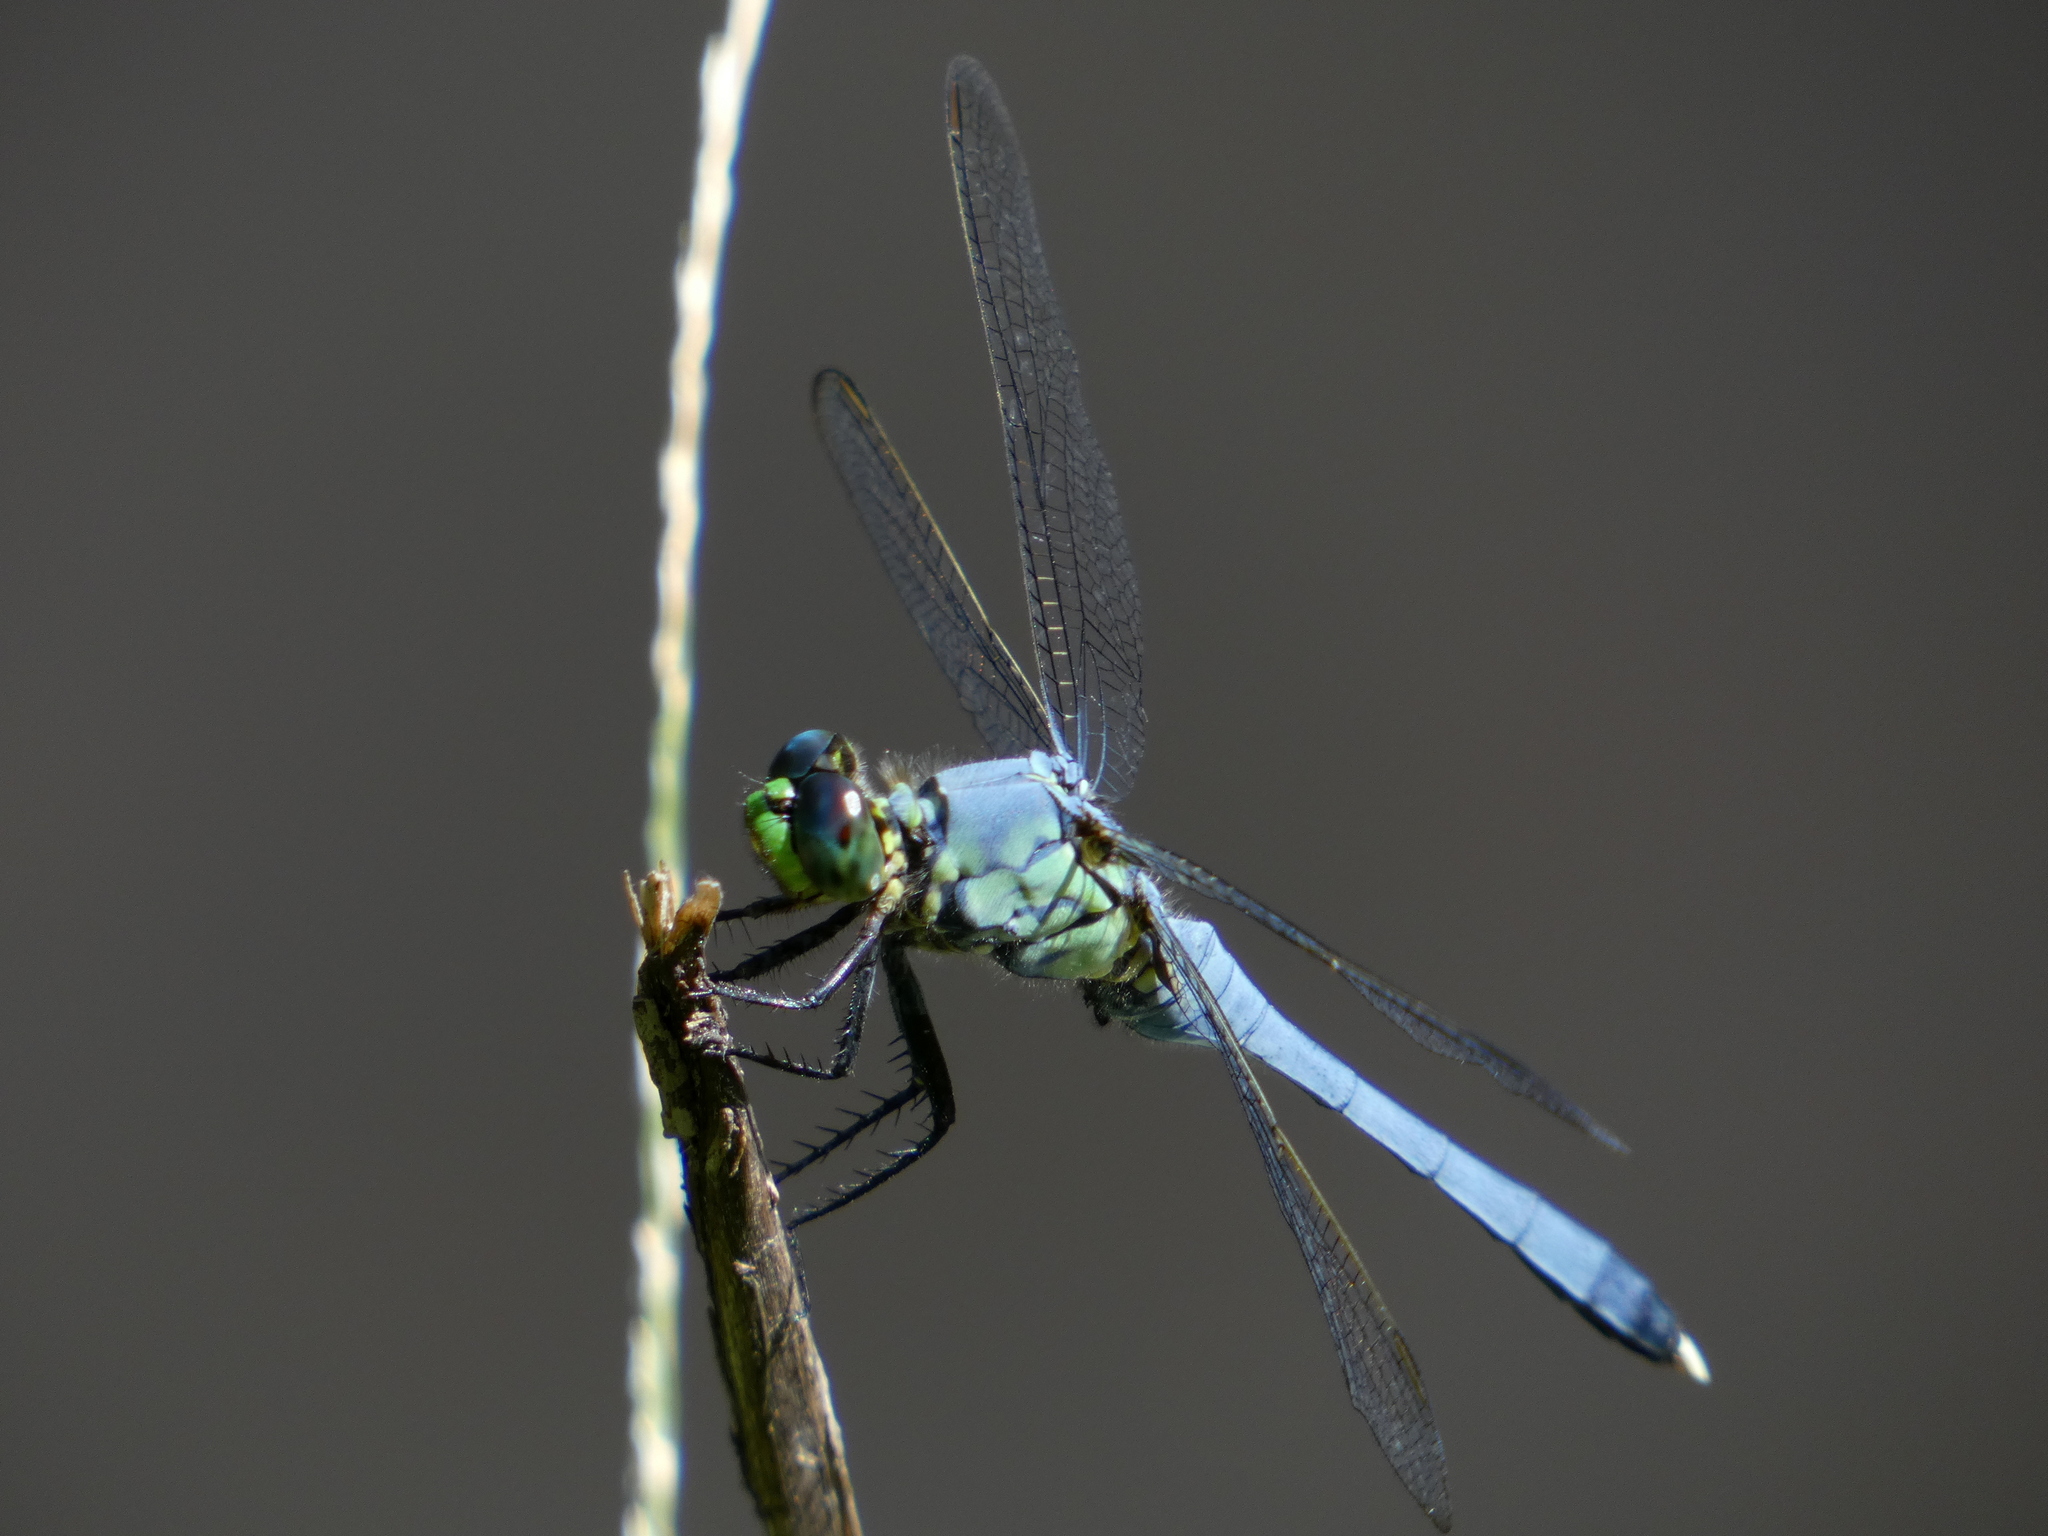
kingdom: Animalia
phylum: Arthropoda
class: Insecta
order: Odonata
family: Libellulidae
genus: Erythemis
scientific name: Erythemis simplicicollis
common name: Eastern pondhawk
